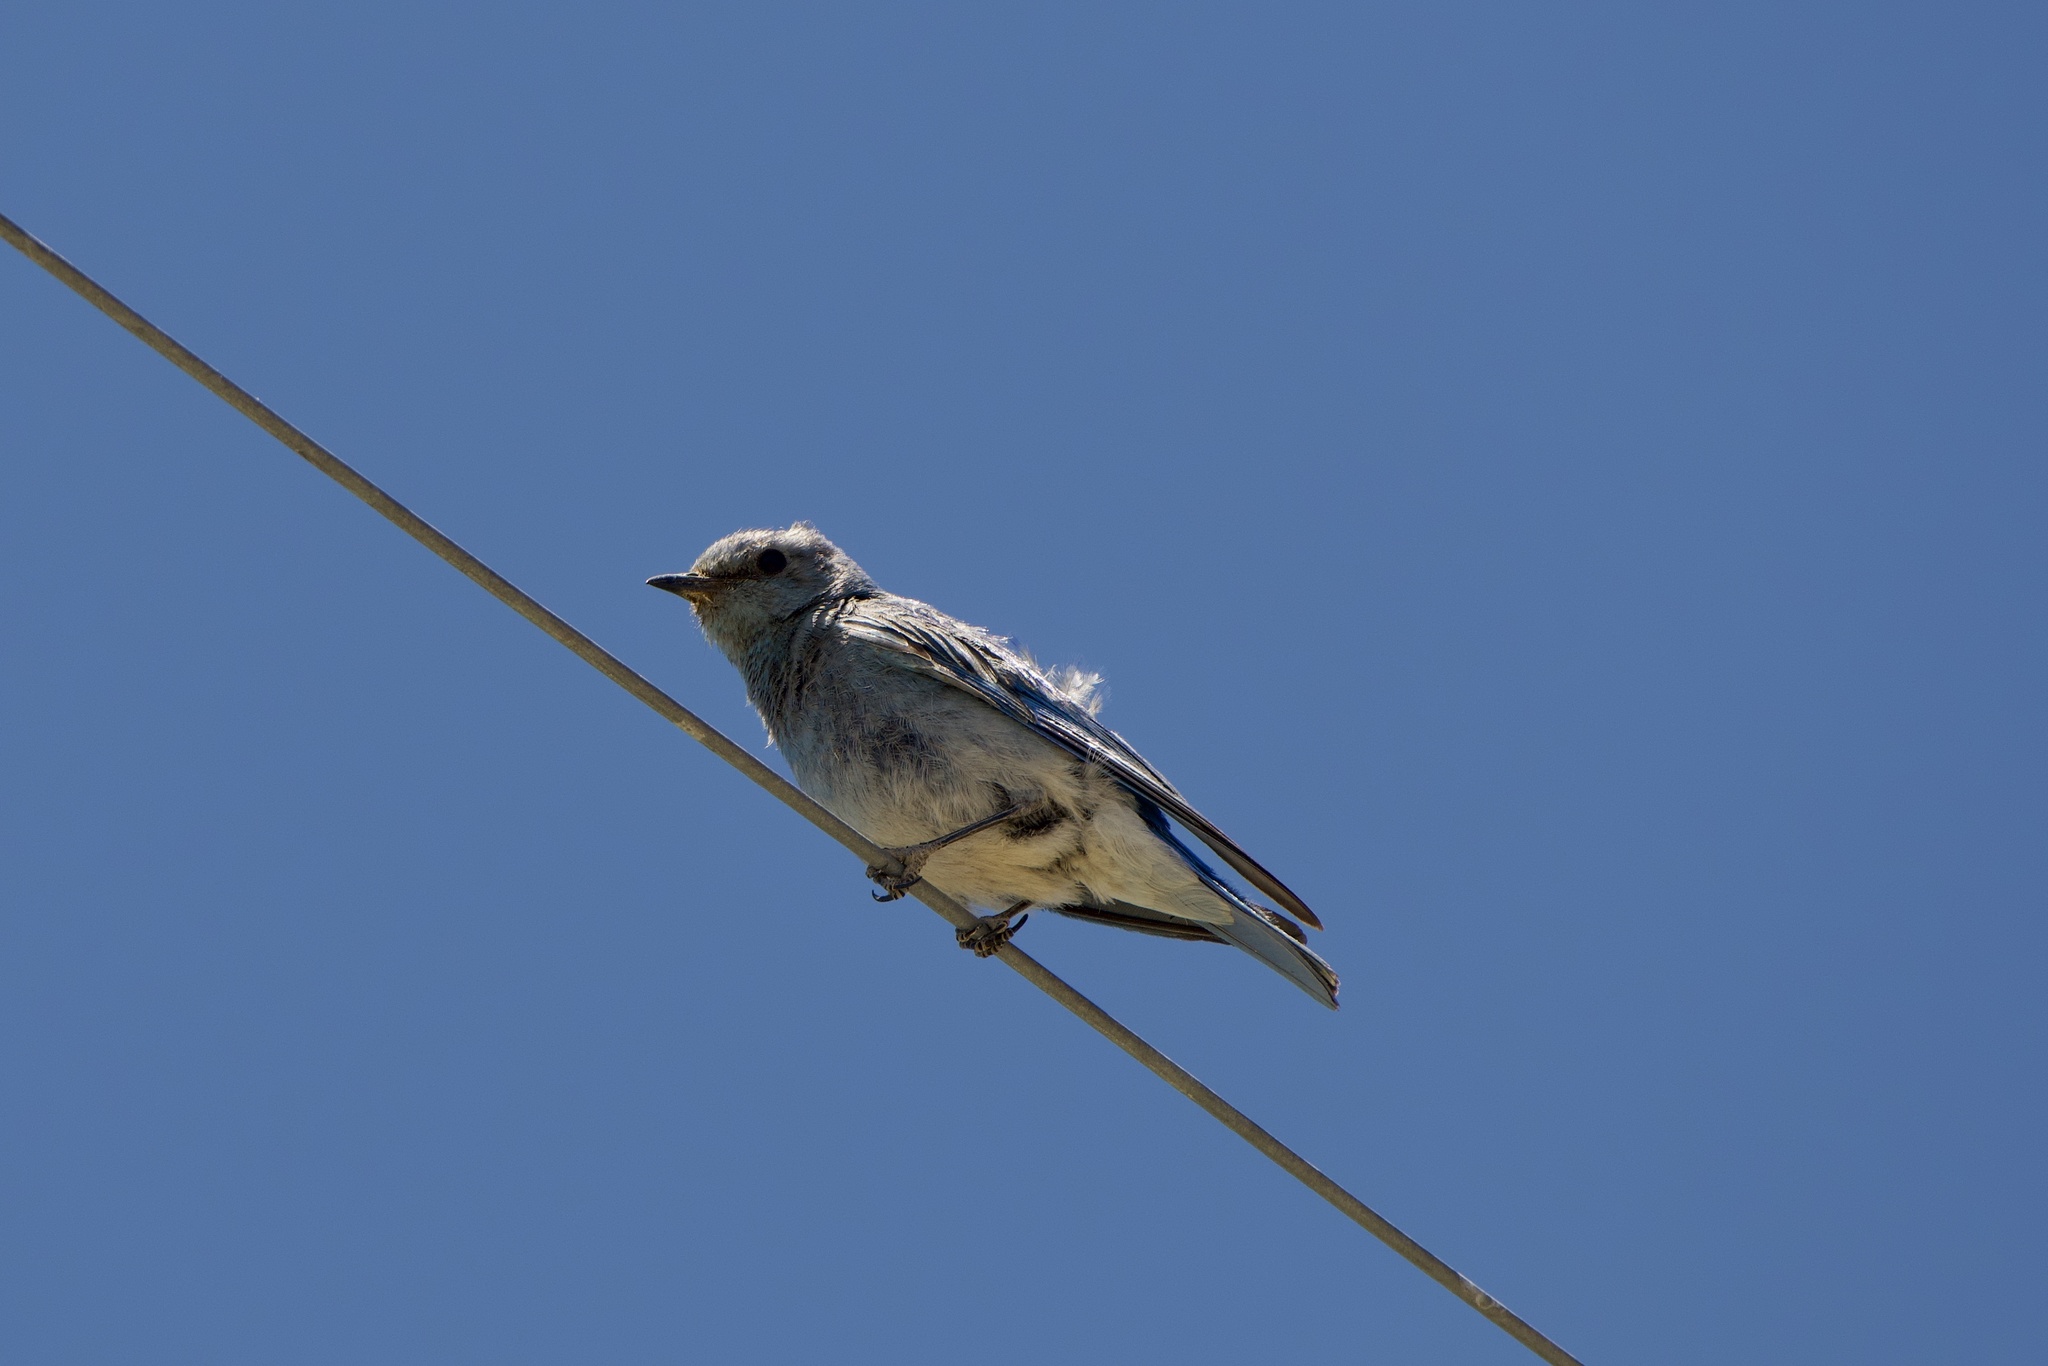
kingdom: Animalia
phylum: Chordata
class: Aves
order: Passeriformes
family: Turdidae
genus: Sialia
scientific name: Sialia currucoides
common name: Mountain bluebird
